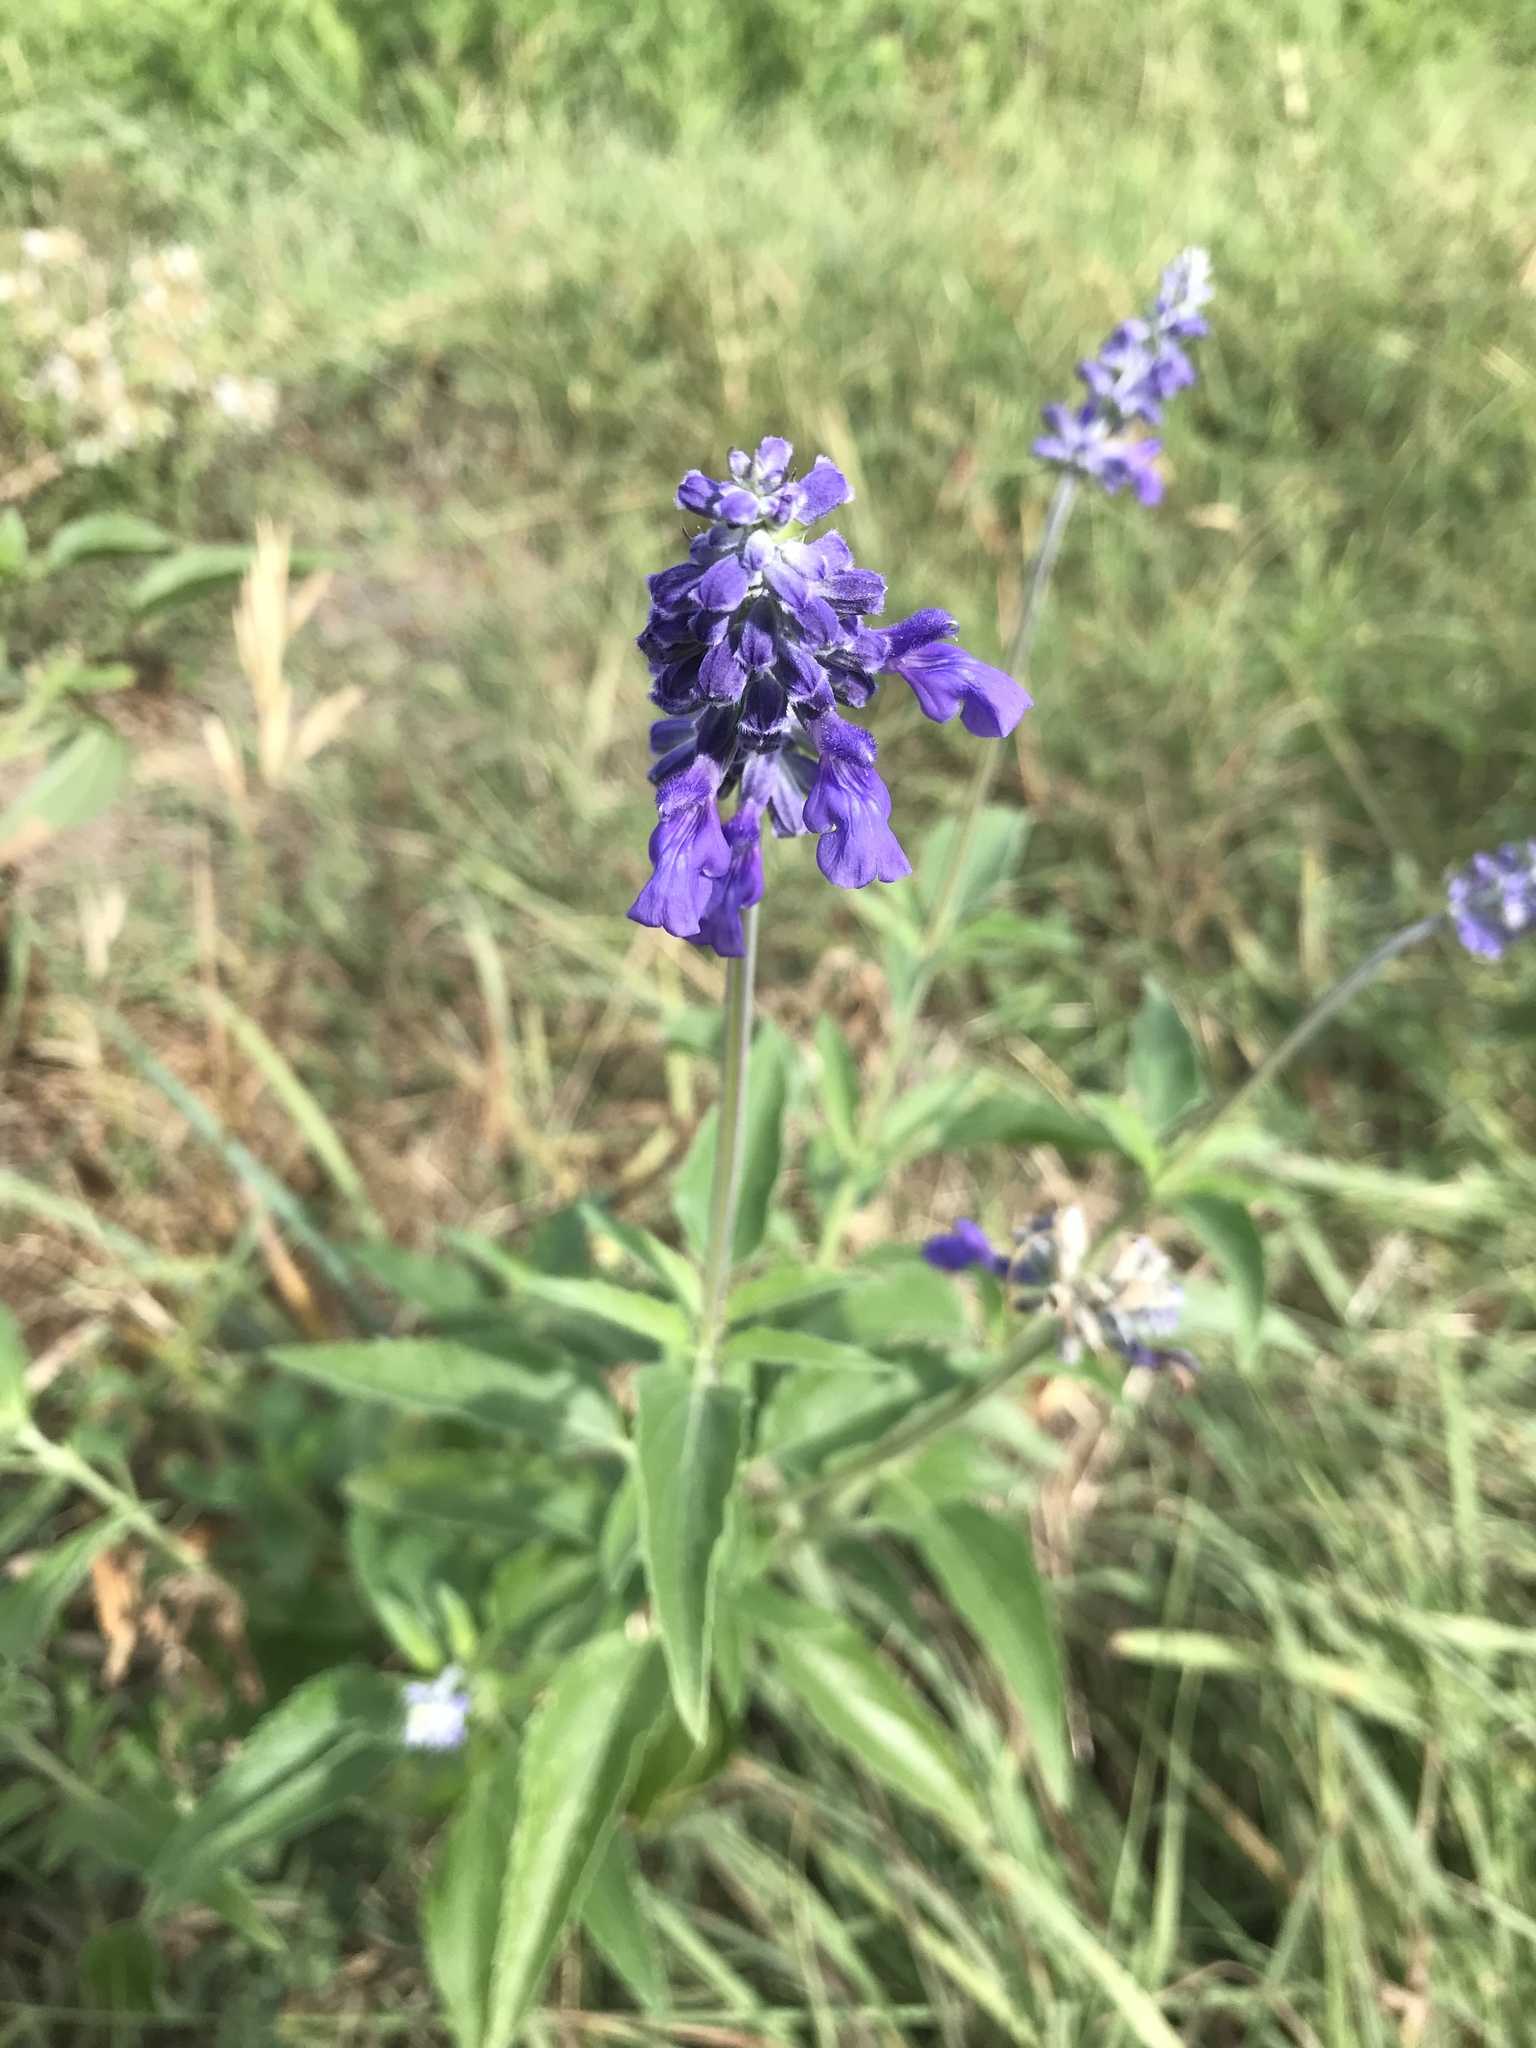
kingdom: Plantae
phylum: Tracheophyta
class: Magnoliopsida
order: Lamiales
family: Lamiaceae
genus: Salvia
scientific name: Salvia farinacea
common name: Mealy sage
